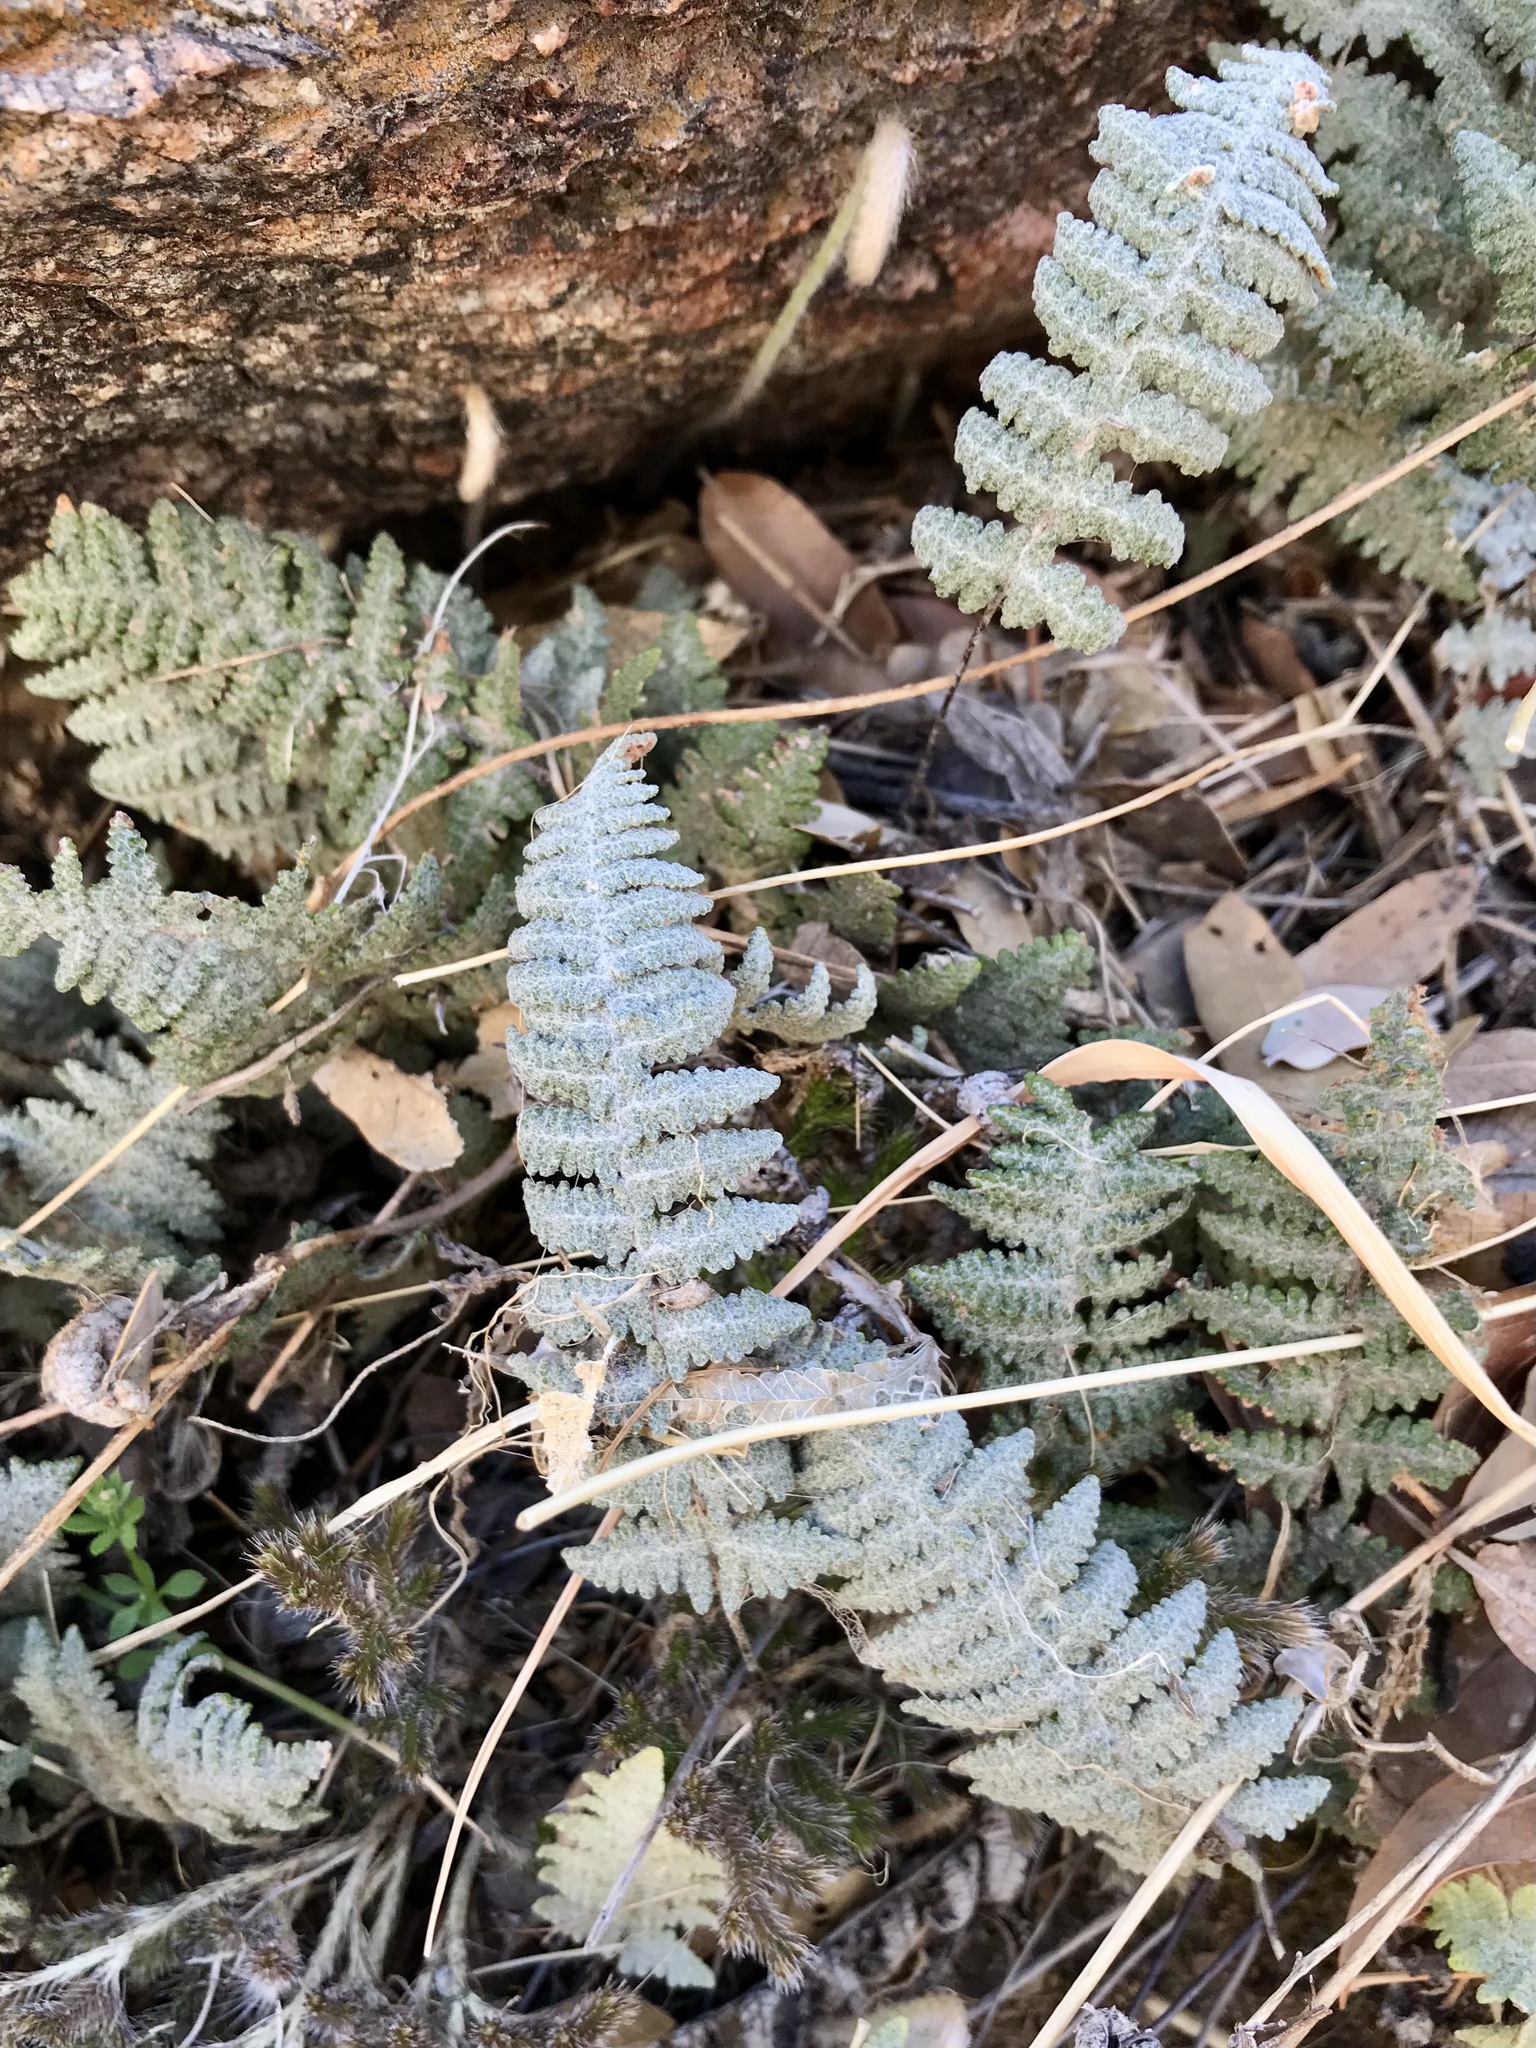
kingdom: Plantae
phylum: Tracheophyta
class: Polypodiopsida
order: Polypodiales
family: Pteridaceae
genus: Myriopteris
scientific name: Myriopteris lindheimeri
